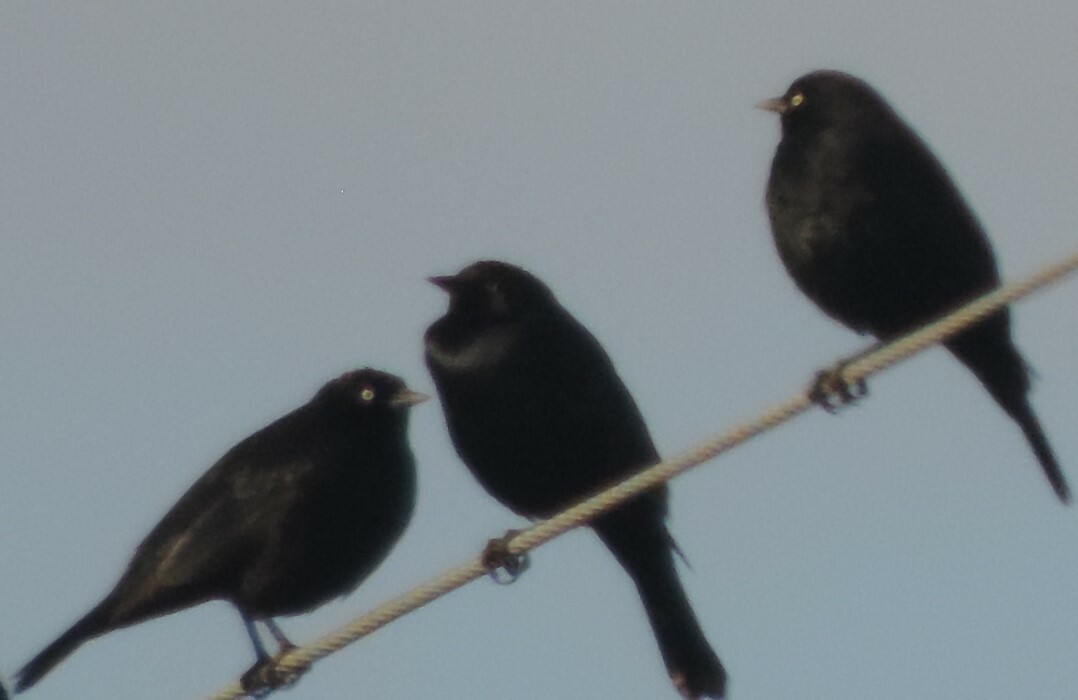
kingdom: Animalia
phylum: Chordata
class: Aves
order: Passeriformes
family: Icteridae
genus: Euphagus
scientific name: Euphagus cyanocephalus
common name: Brewer's blackbird
